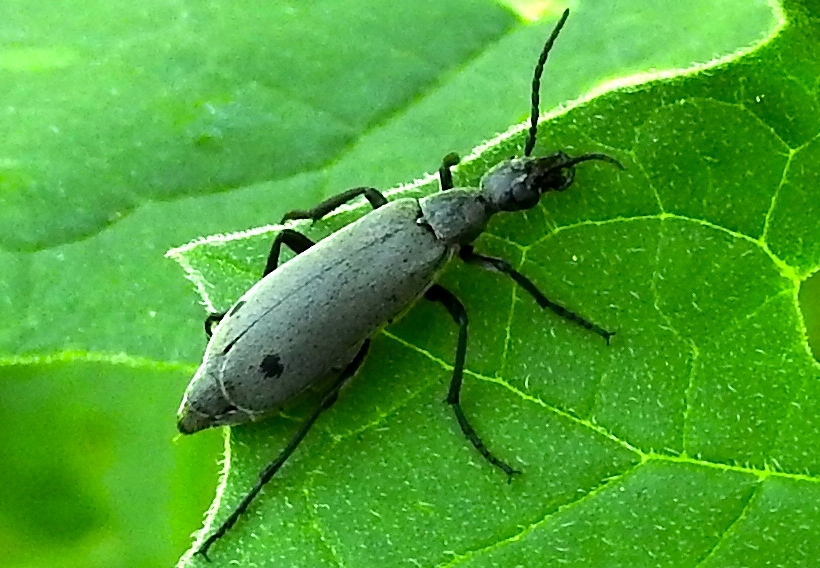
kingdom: Animalia
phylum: Arthropoda
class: Insecta
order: Coleoptera
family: Meloidae
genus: Epicauta
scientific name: Epicauta bipunctata
